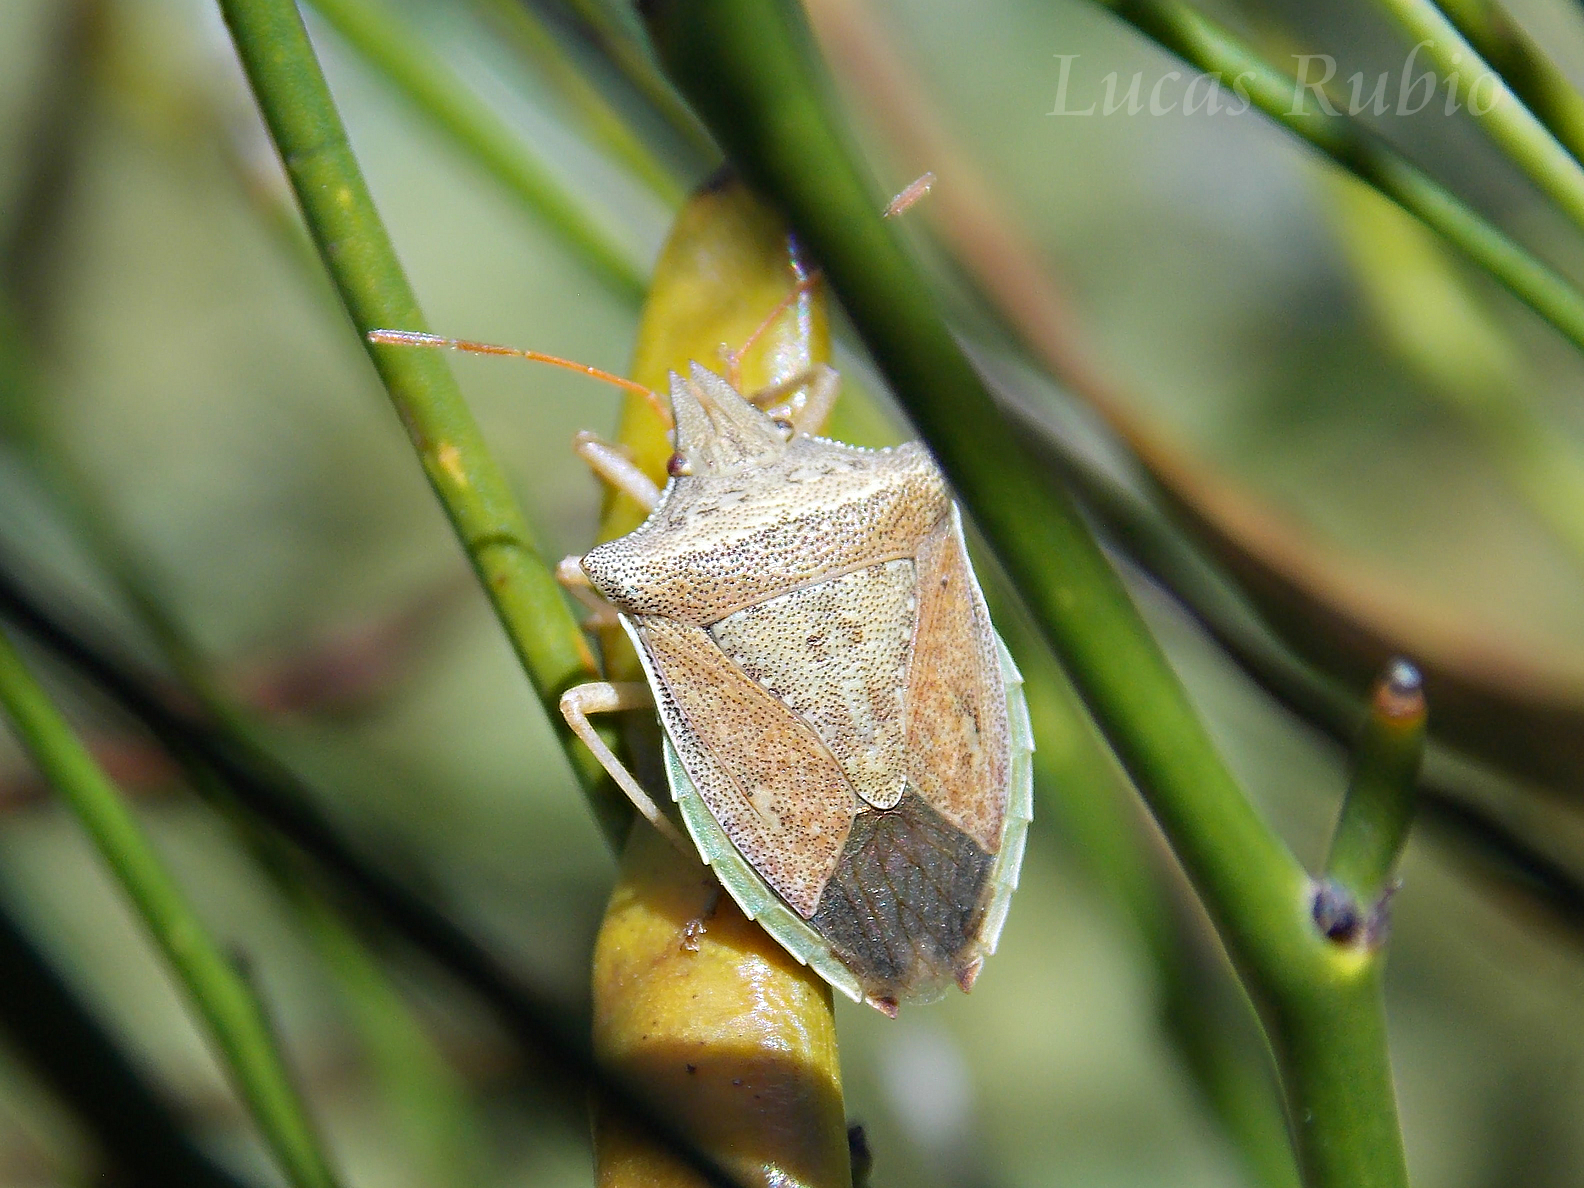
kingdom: Animalia
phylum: Arthropoda
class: Insecta
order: Hemiptera
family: Pentatomidae
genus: Diceraeus
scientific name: Diceraeus furcatus
